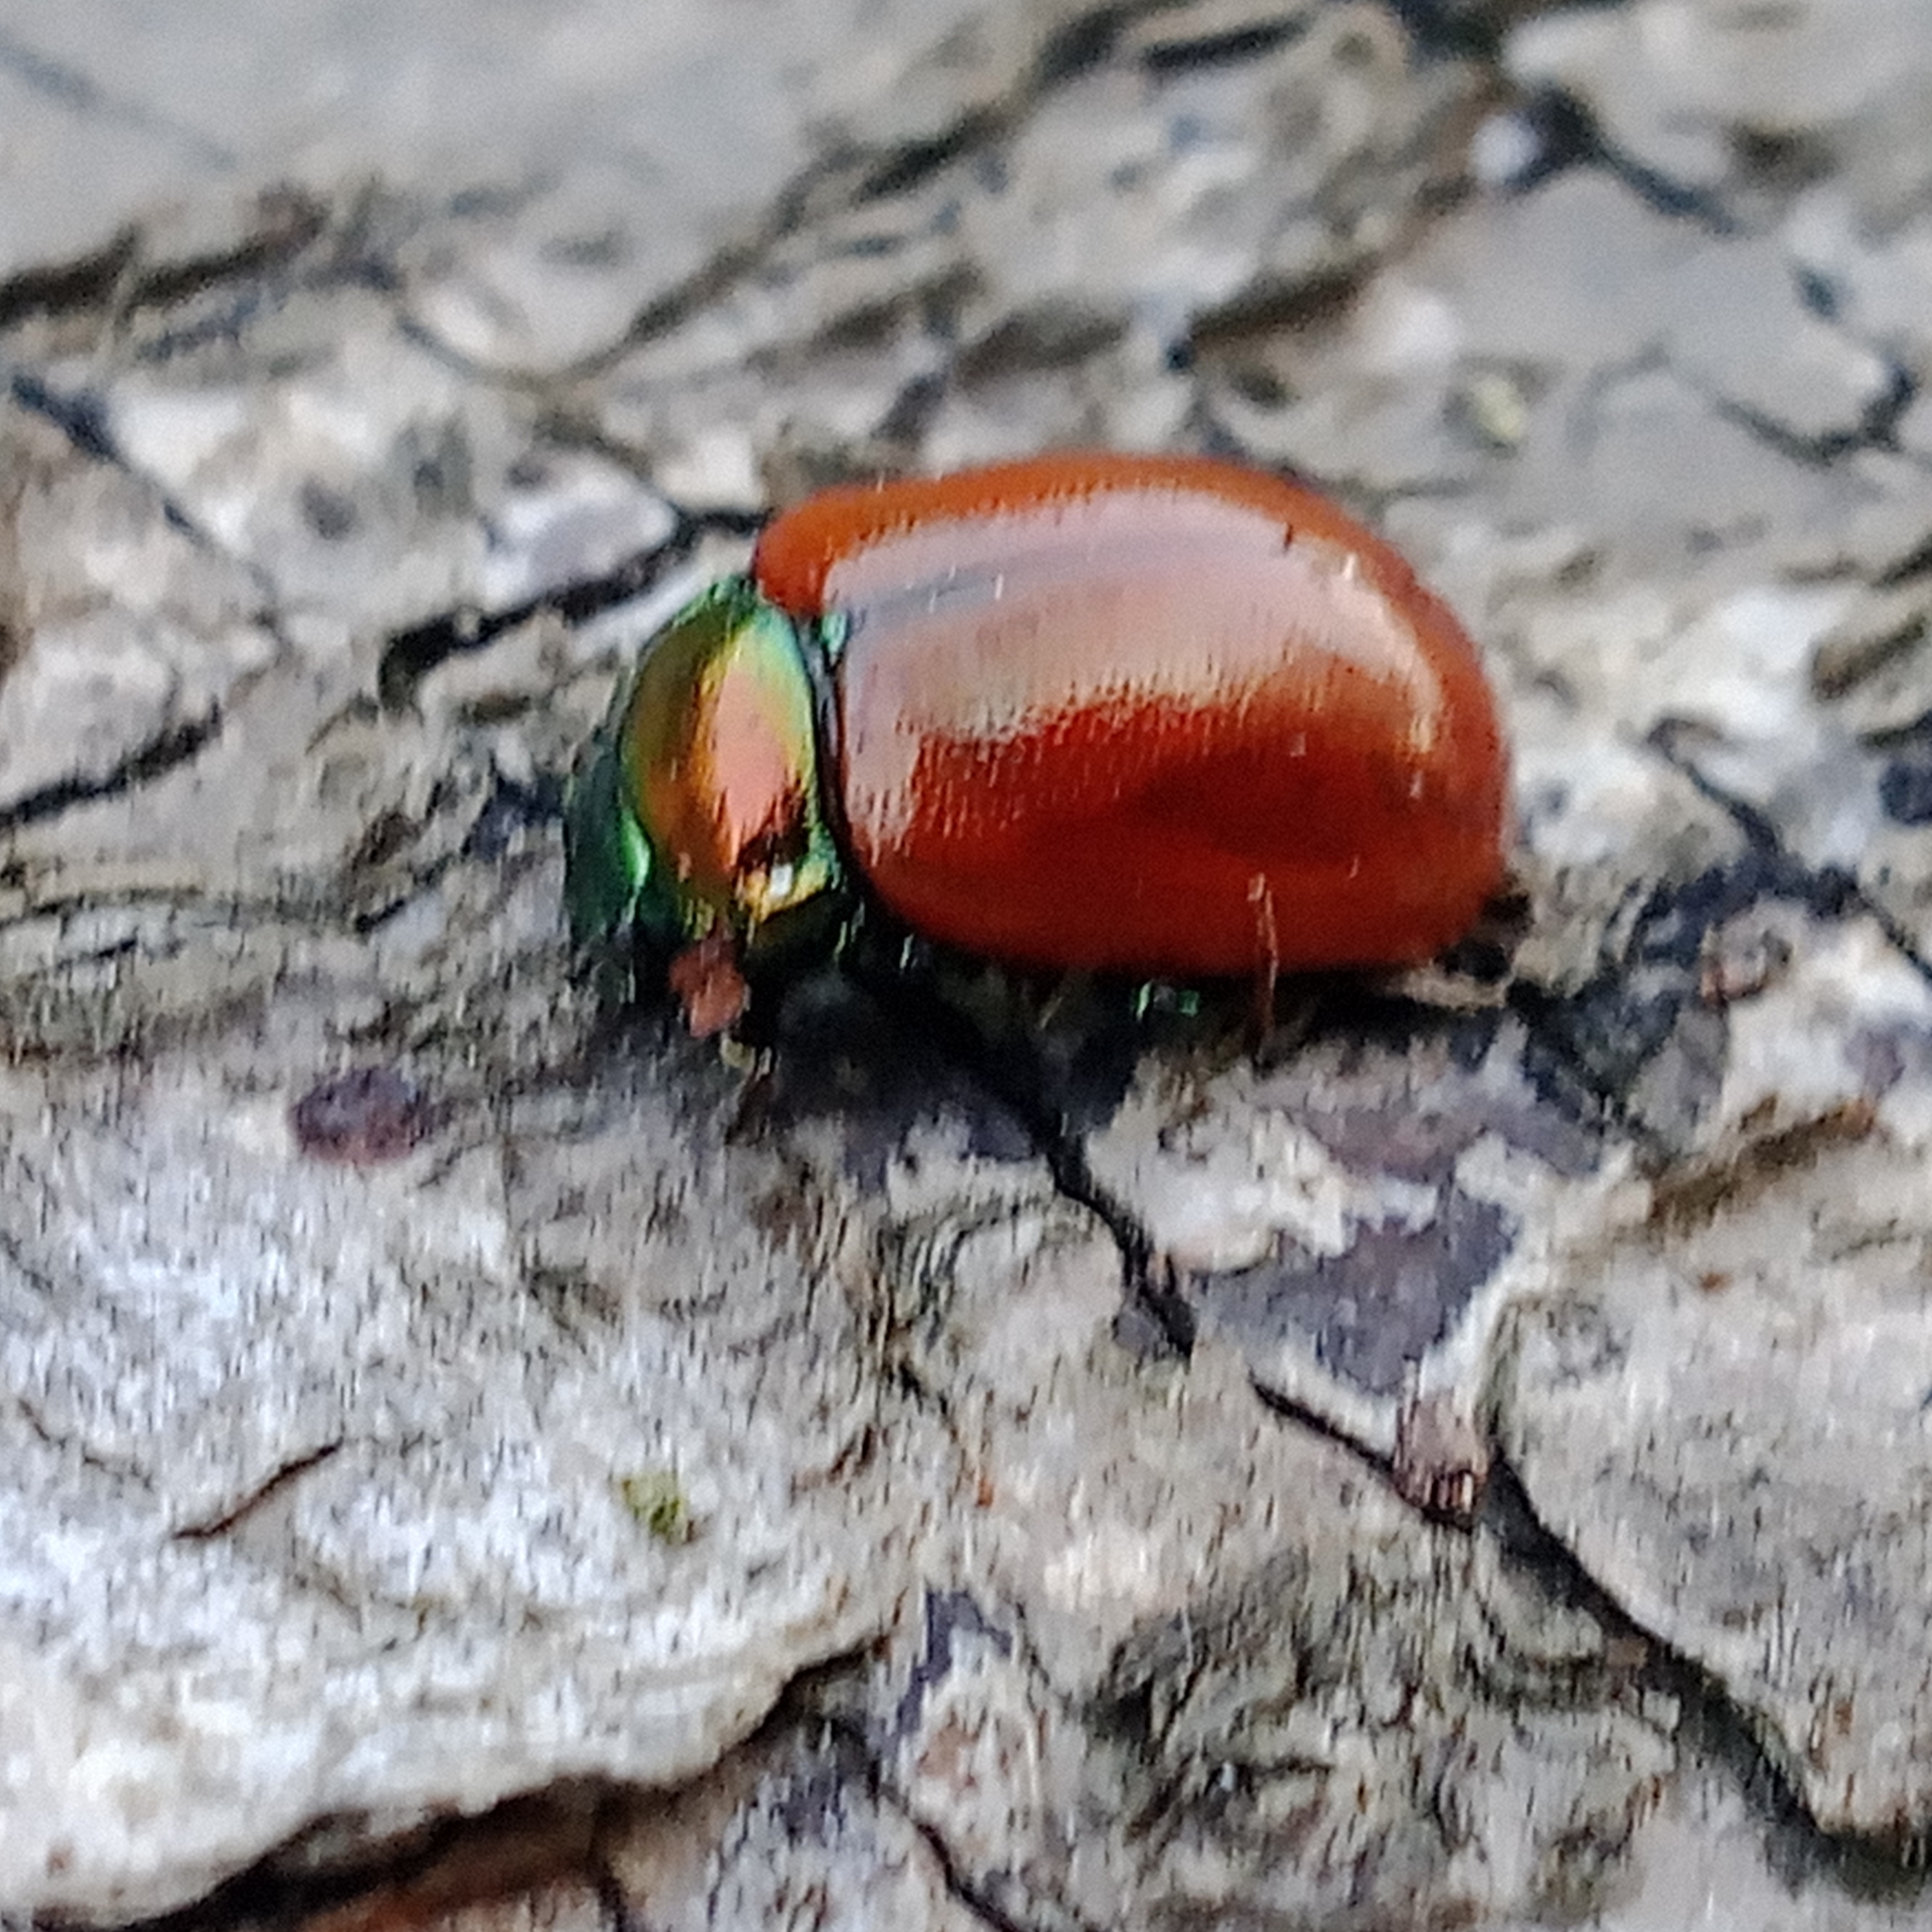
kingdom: Animalia
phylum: Arthropoda
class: Insecta
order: Coleoptera
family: Chrysomelidae
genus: Chrysomela
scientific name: Chrysomela polita
